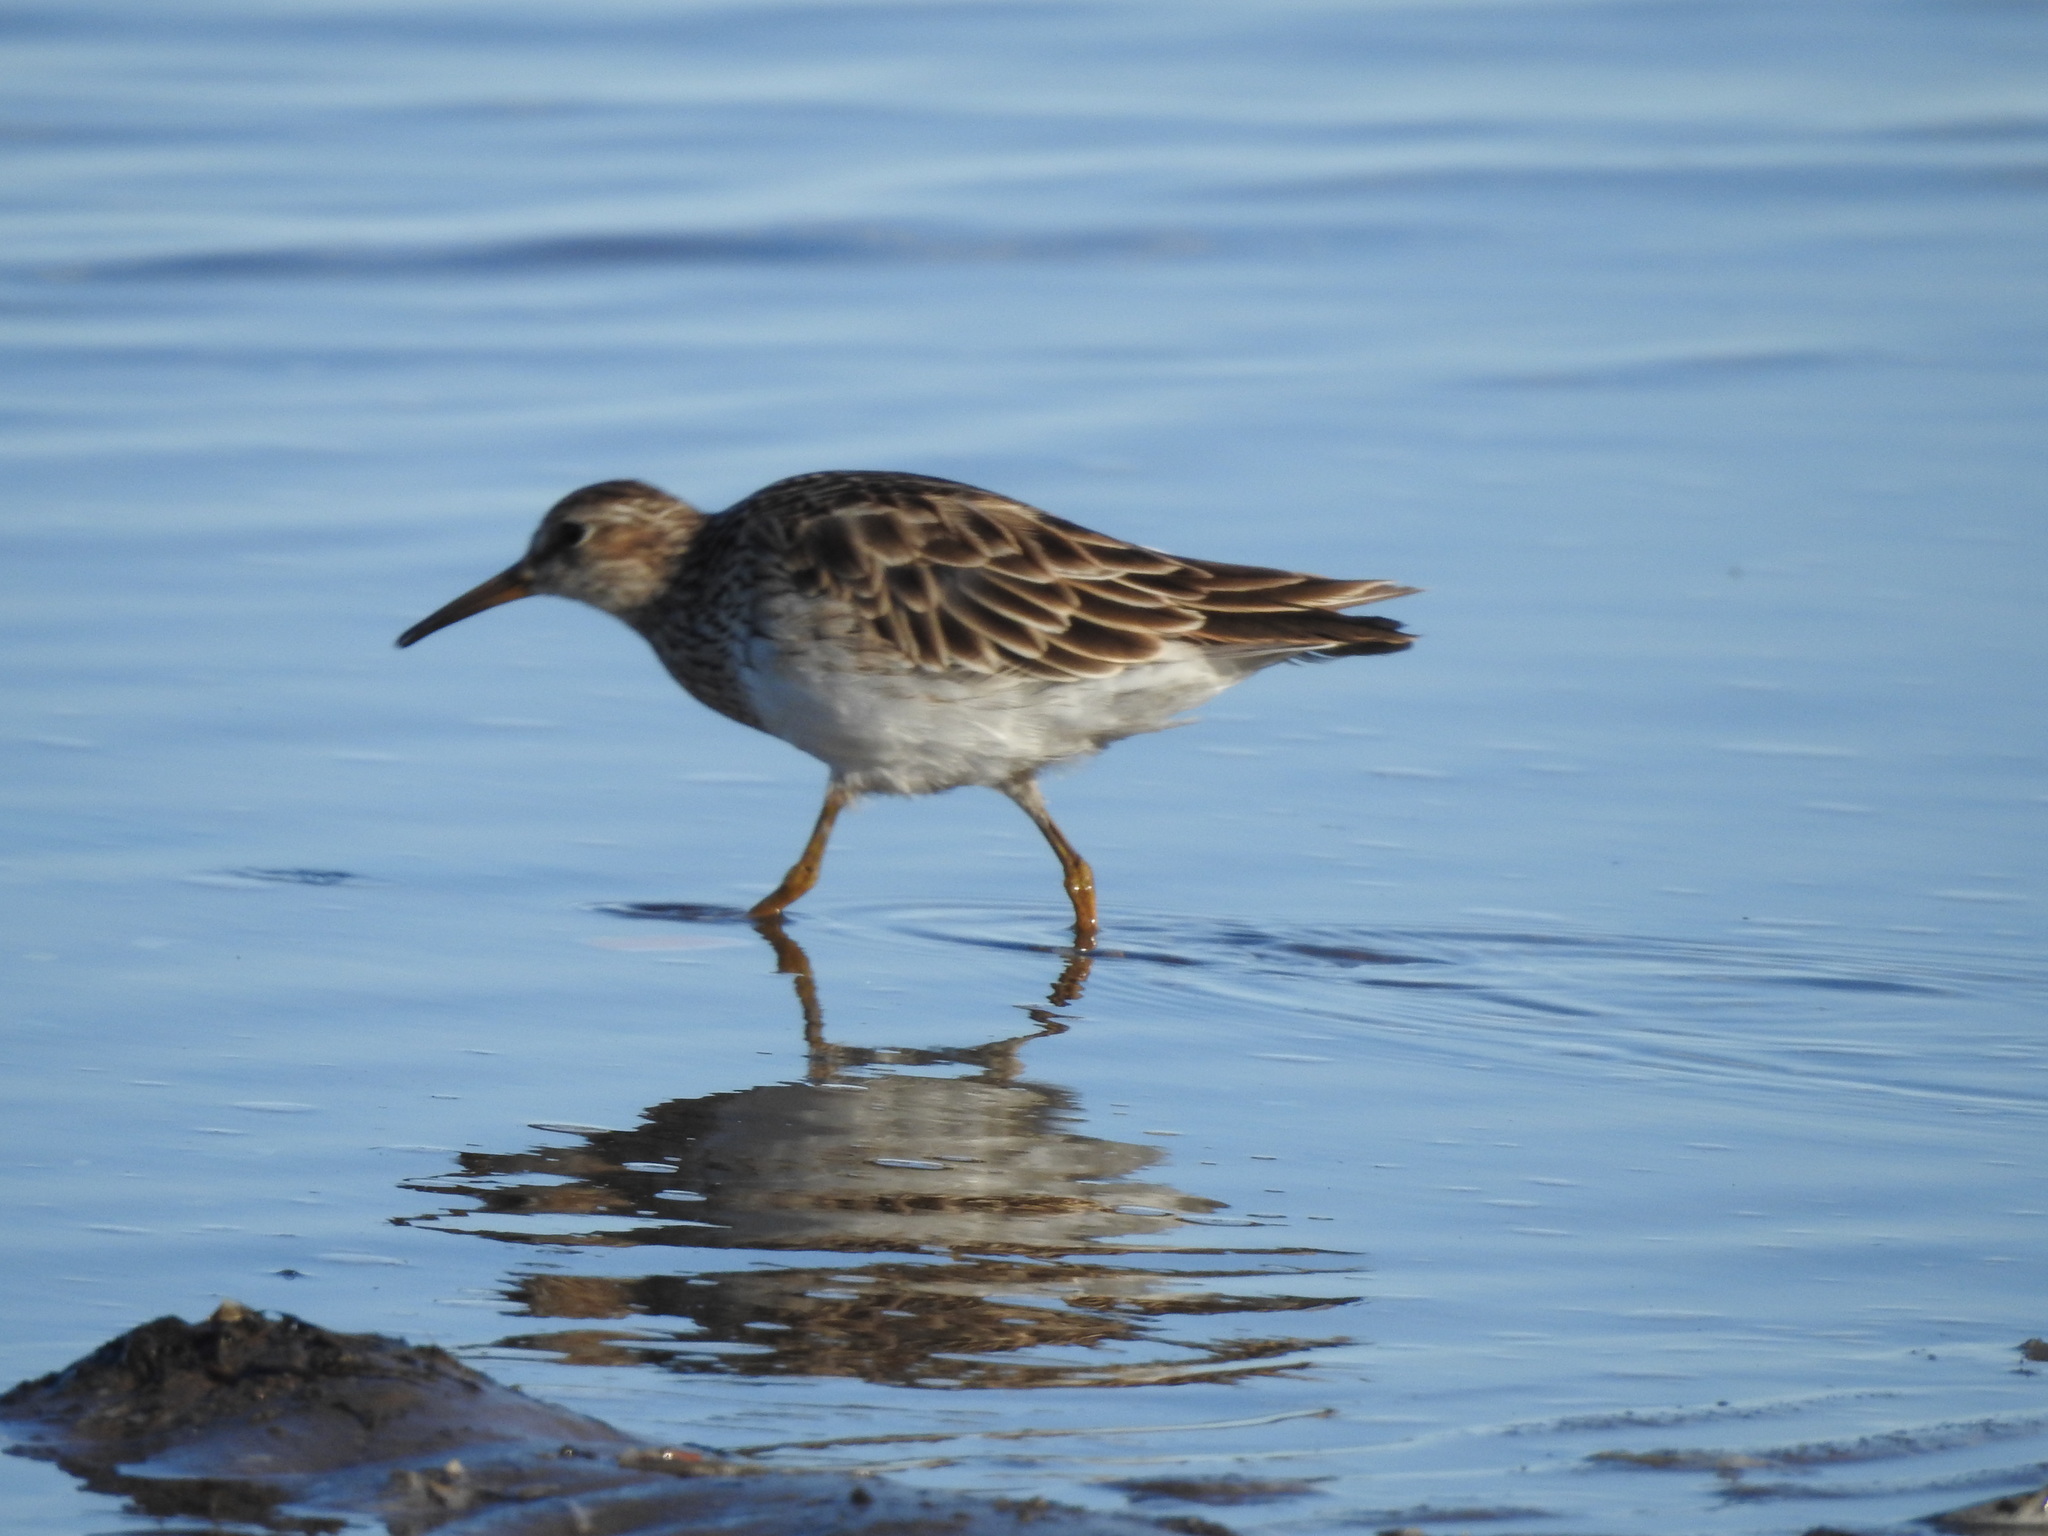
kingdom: Animalia
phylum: Chordata
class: Aves
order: Charadriiformes
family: Scolopacidae
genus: Calidris
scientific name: Calidris melanotos
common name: Pectoral sandpiper
